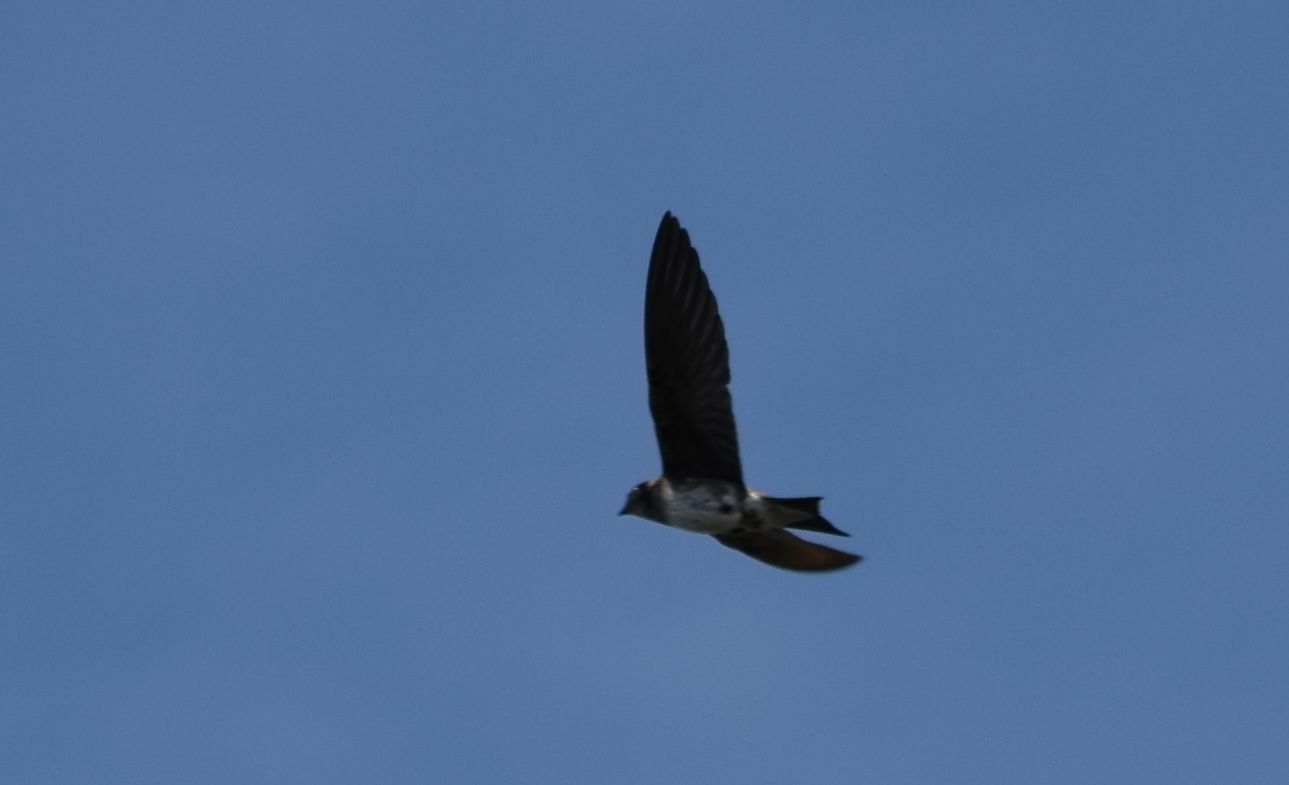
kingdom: Animalia
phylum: Chordata
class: Aves
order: Passeriformes
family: Hirundinidae
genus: Progne
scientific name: Progne subis
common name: Purple martin
